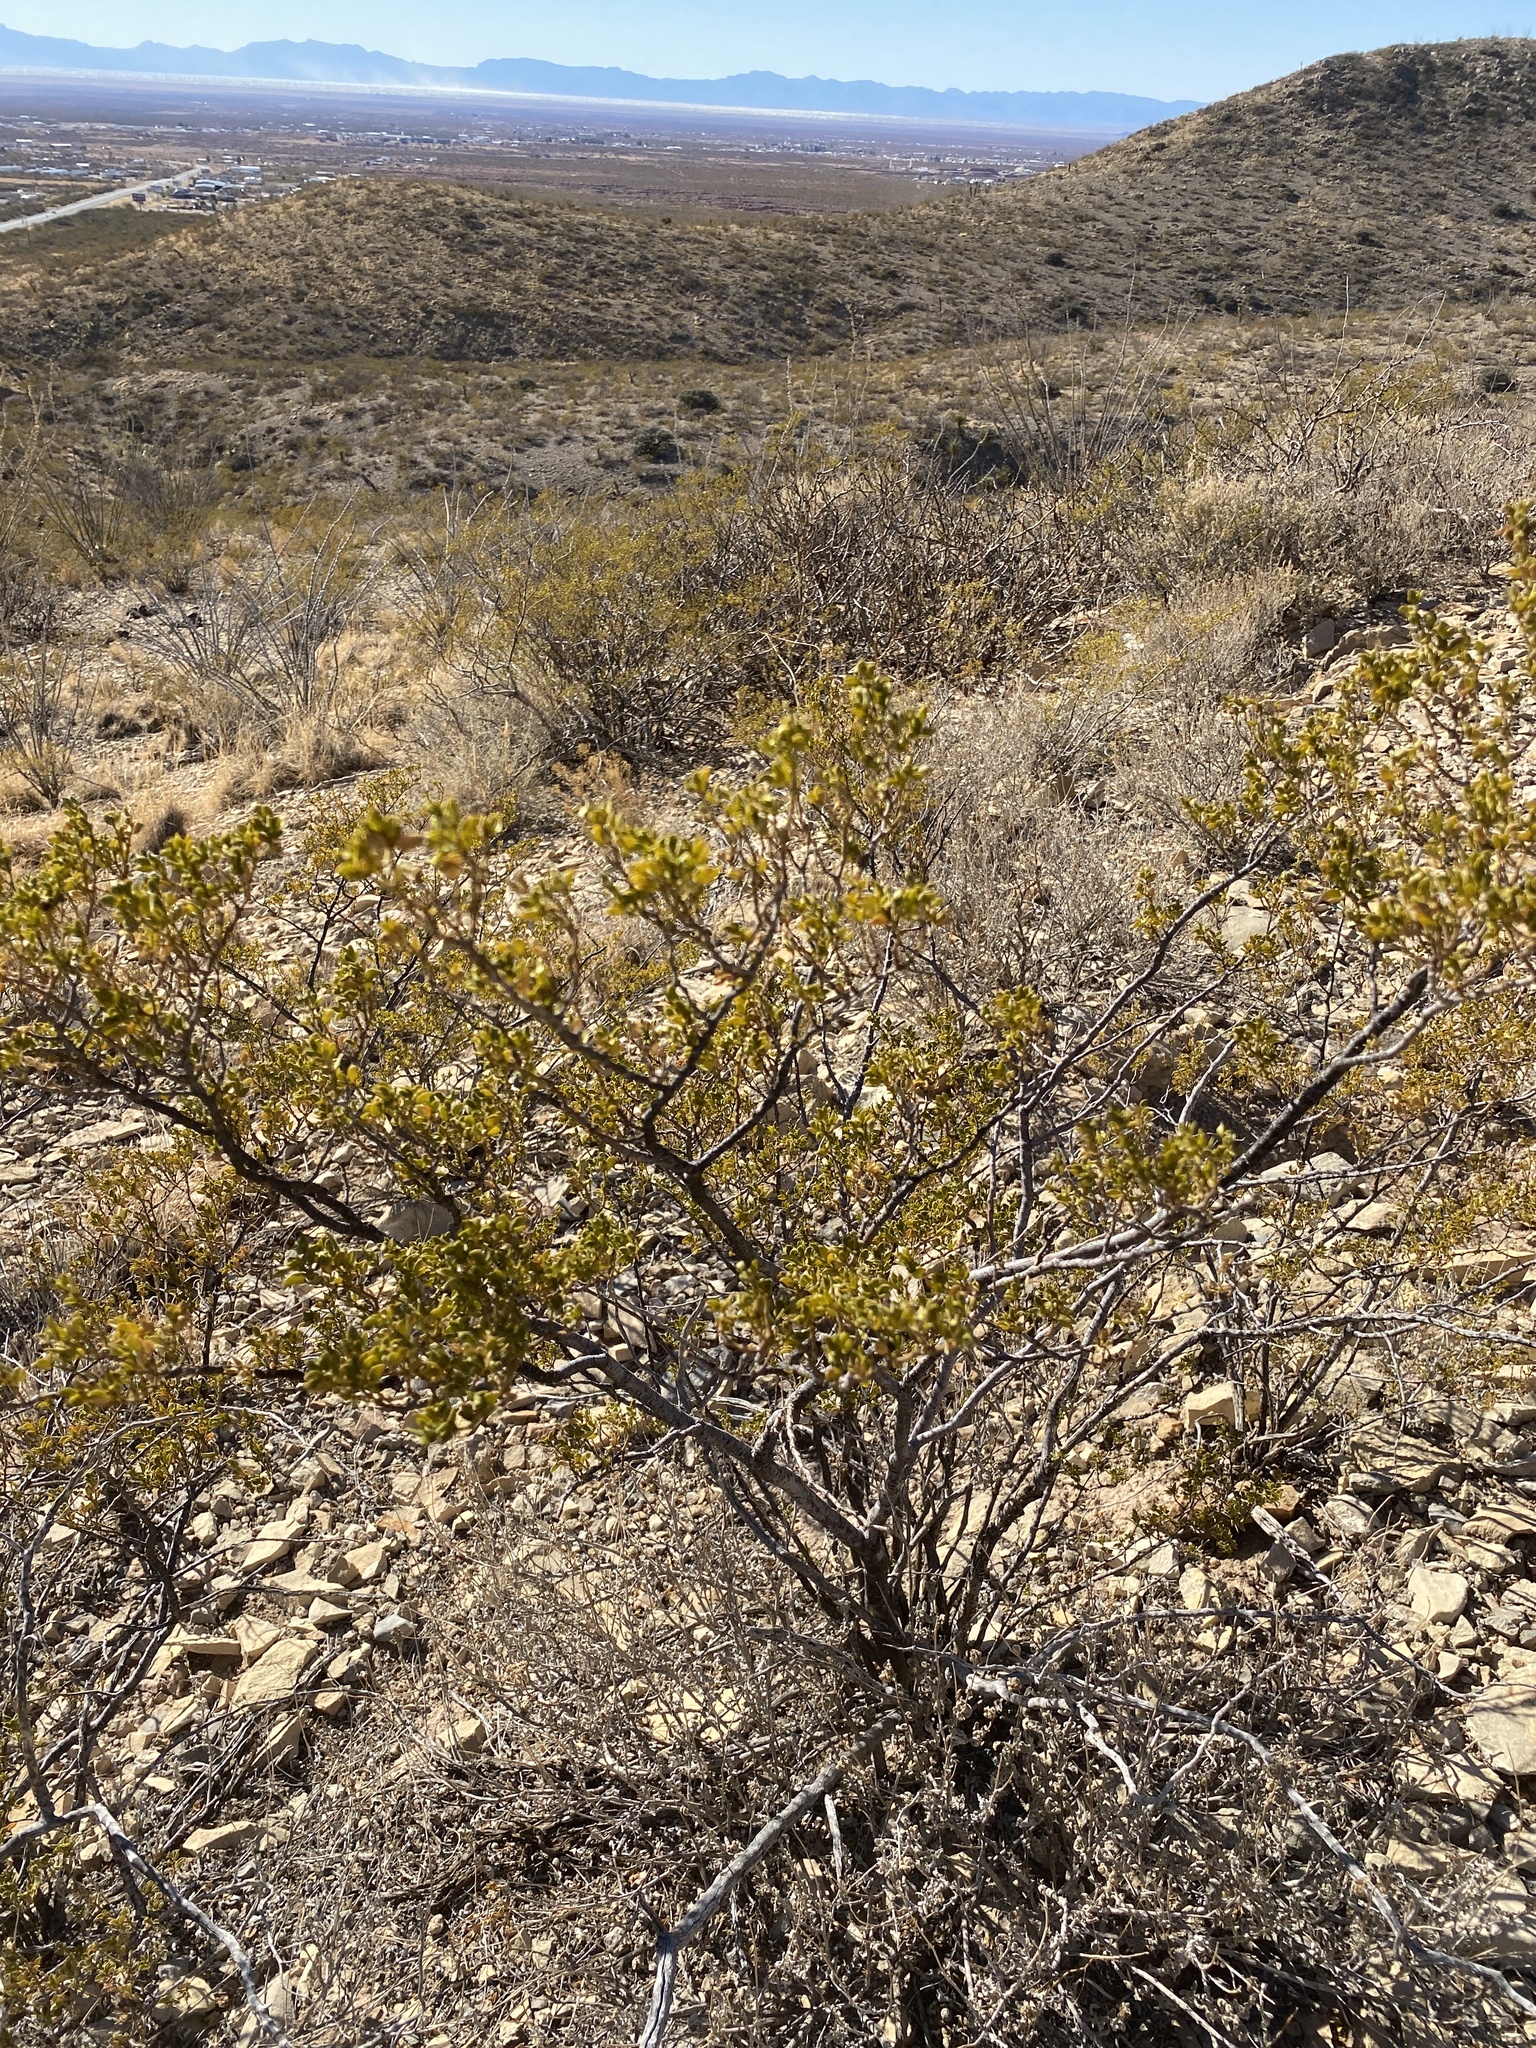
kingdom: Plantae
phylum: Tracheophyta
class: Magnoliopsida
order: Zygophyllales
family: Zygophyllaceae
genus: Larrea
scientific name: Larrea tridentata
